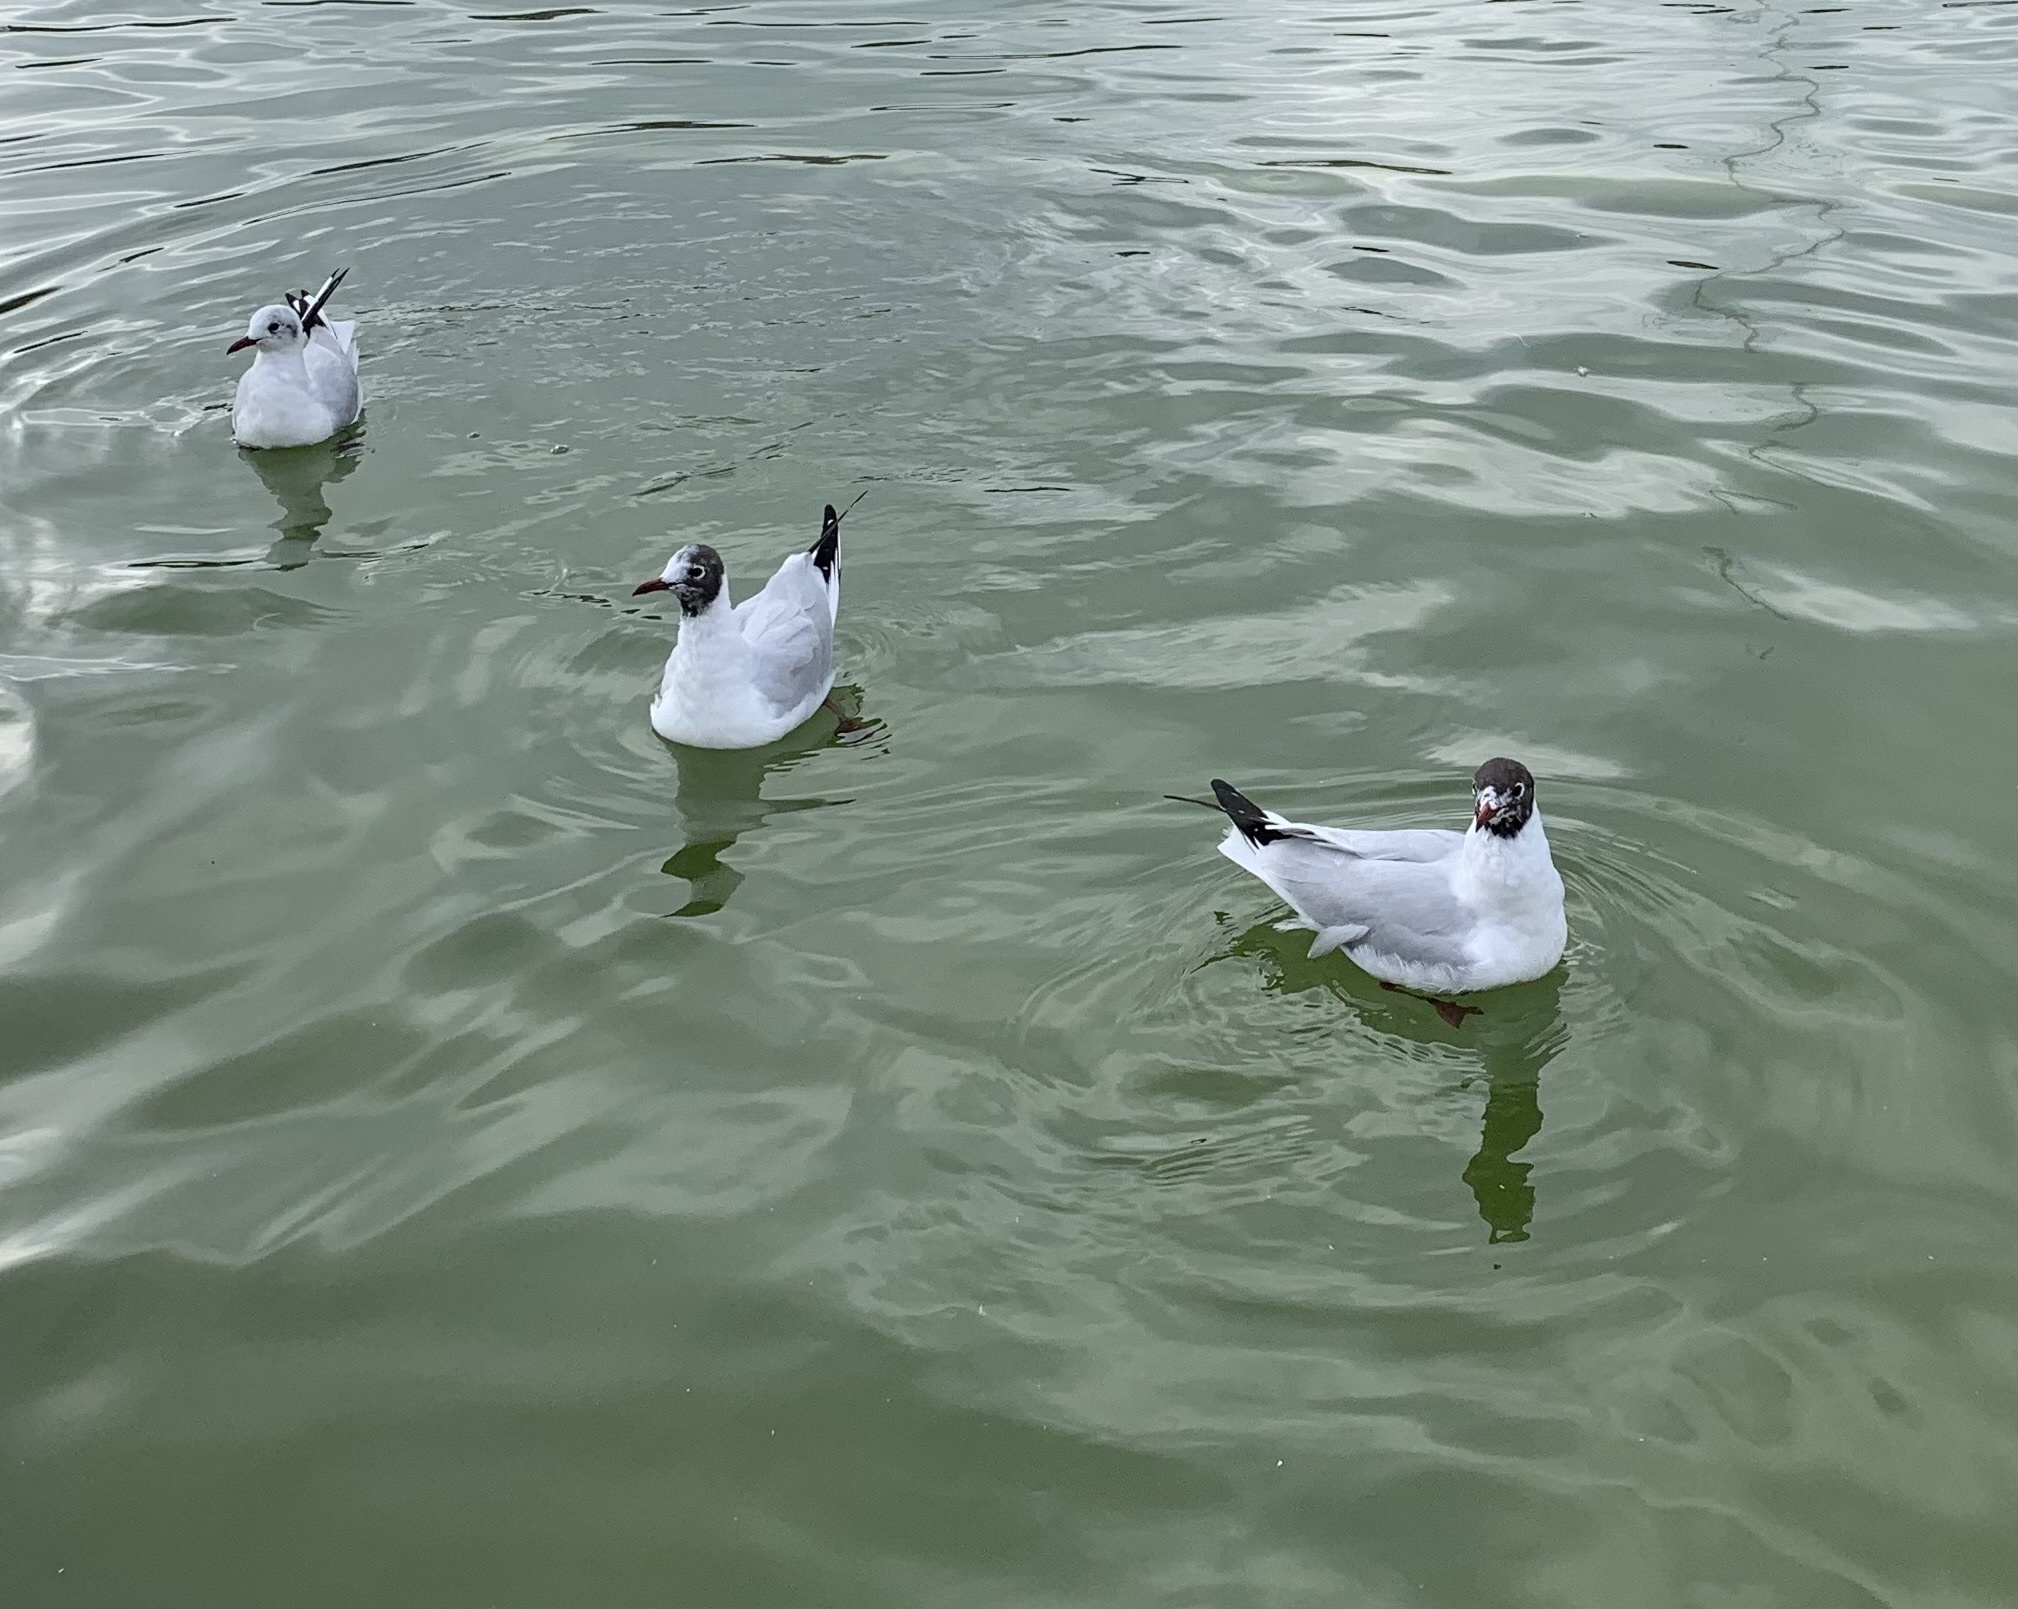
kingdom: Animalia
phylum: Chordata
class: Aves
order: Charadriiformes
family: Laridae
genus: Chroicocephalus
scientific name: Chroicocephalus ridibundus
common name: Black-headed gull
